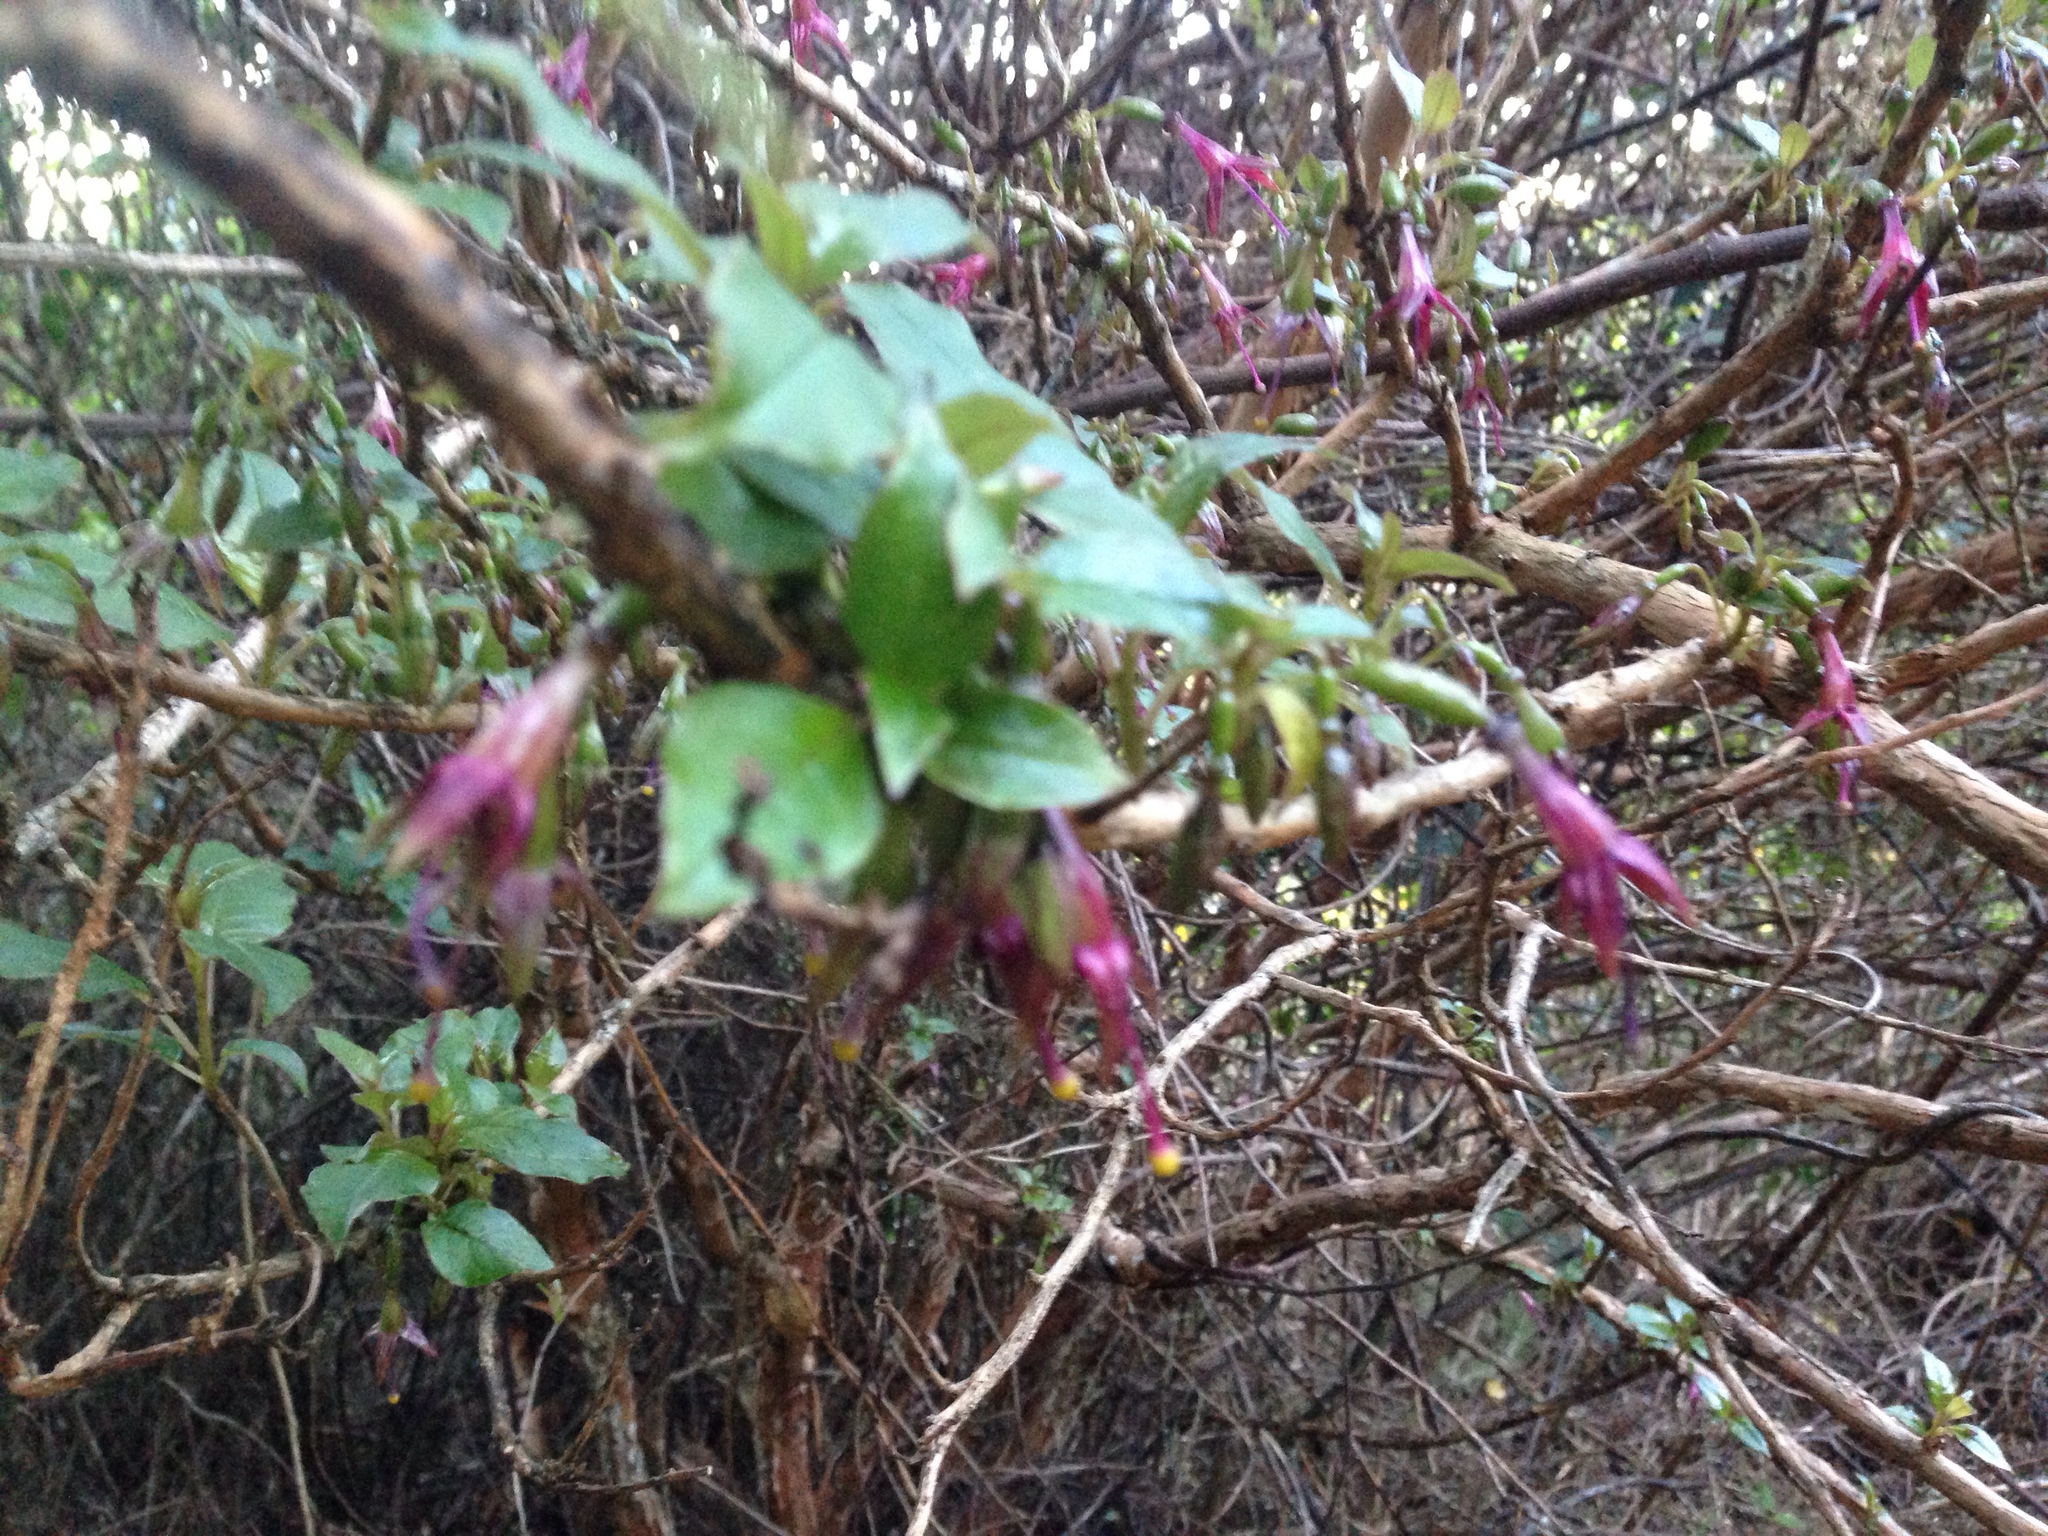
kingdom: Plantae
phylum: Tracheophyta
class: Magnoliopsida
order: Myrtales
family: Onagraceae
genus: Fuchsia
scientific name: Fuchsia excorticata
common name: Tree fuchsia
